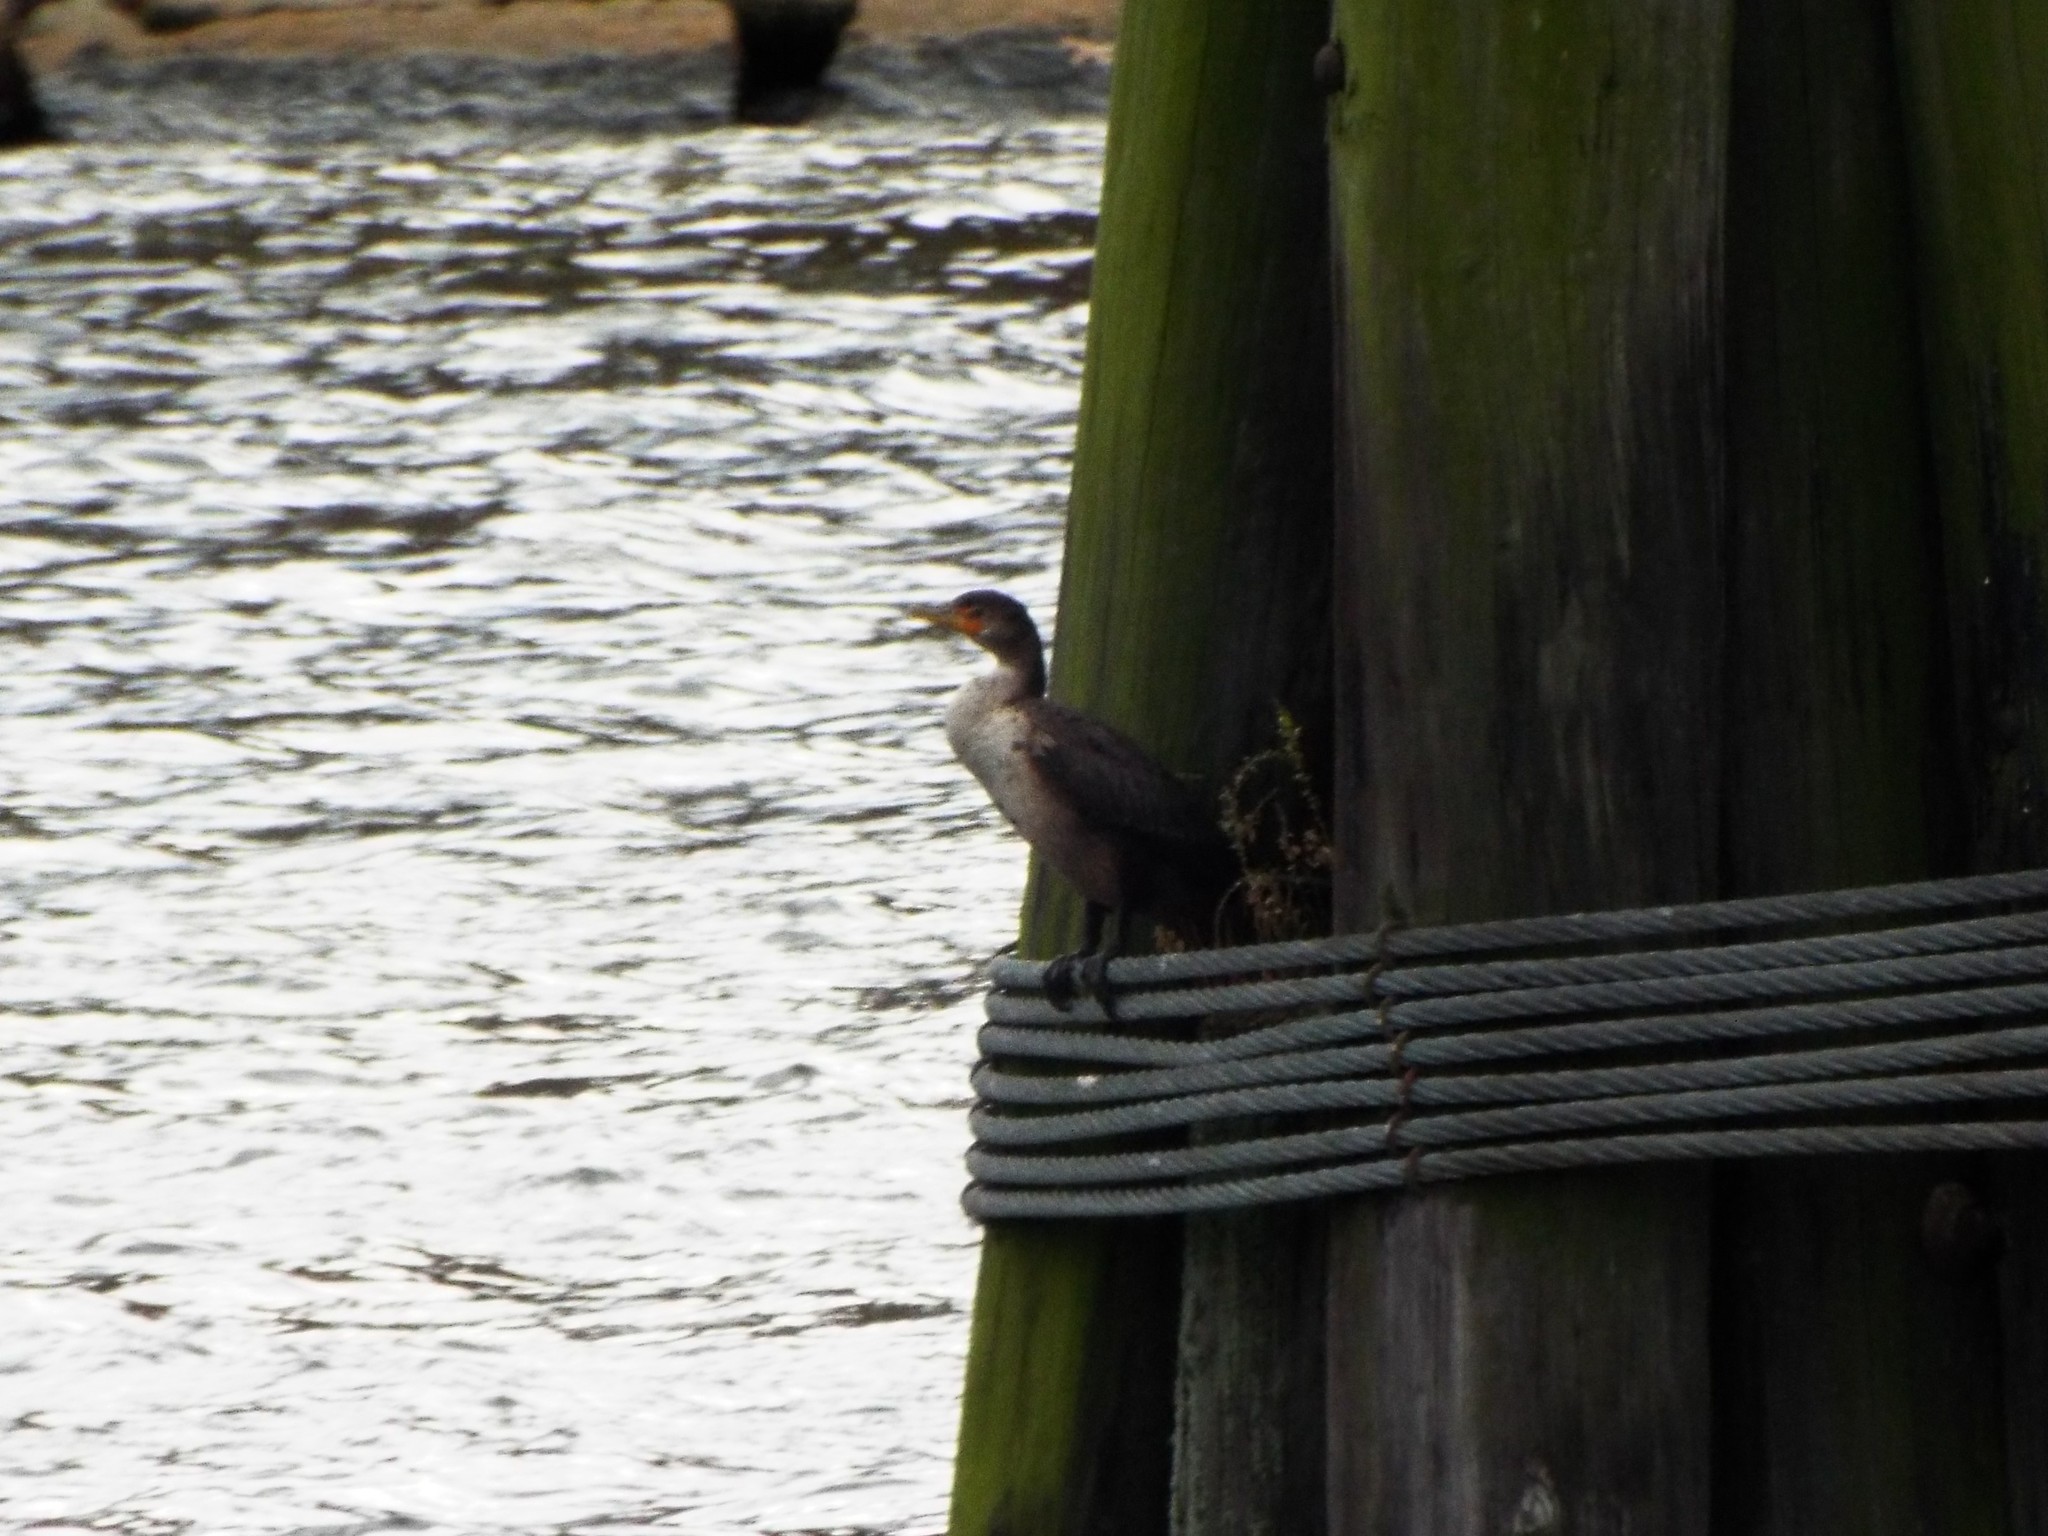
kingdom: Animalia
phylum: Chordata
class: Aves
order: Suliformes
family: Phalacrocoracidae
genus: Phalacrocorax
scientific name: Phalacrocorax auritus
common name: Double-crested cormorant
